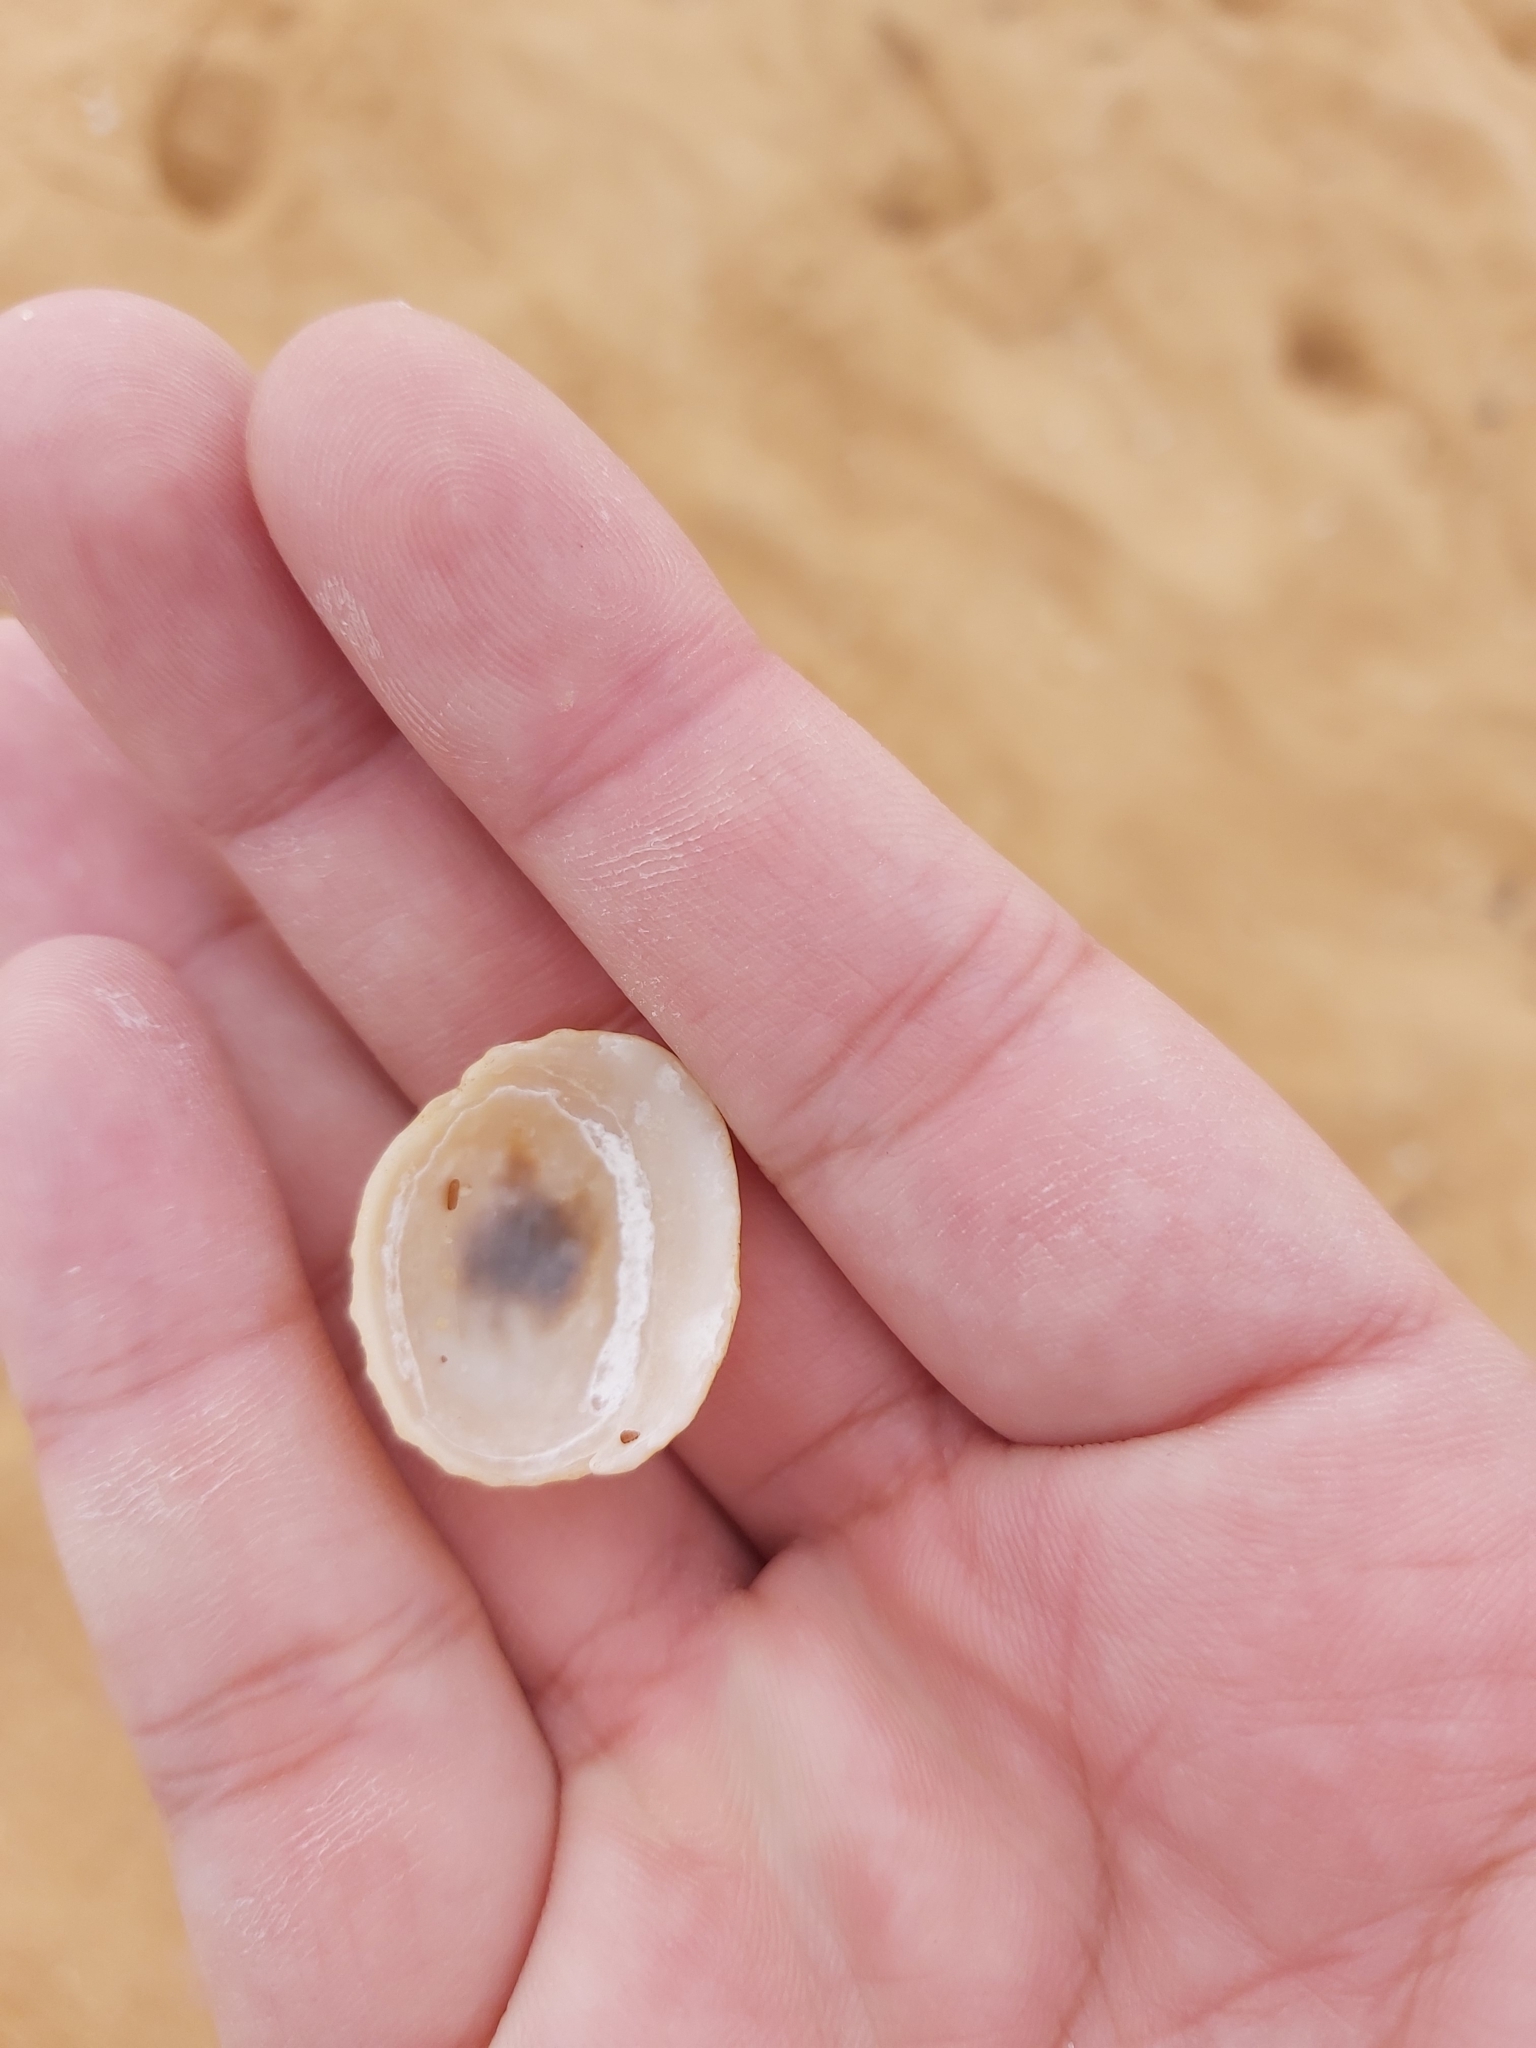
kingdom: Animalia
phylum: Mollusca
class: Gastropoda
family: Patellidae
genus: Scutellastra
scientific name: Scutellastra peronii
